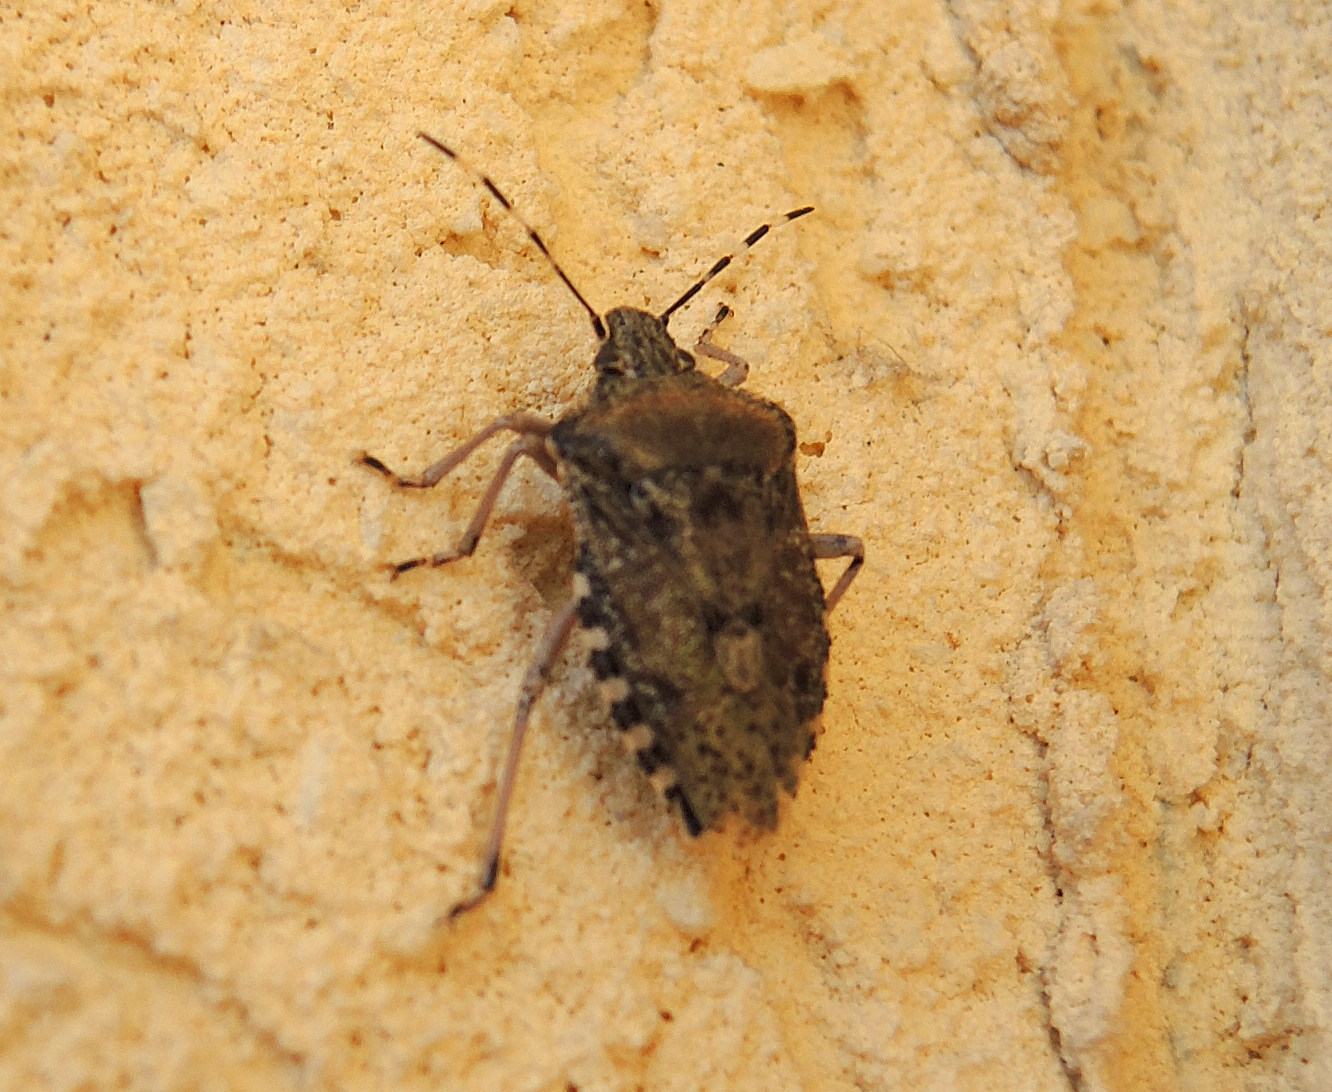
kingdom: Animalia
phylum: Arthropoda
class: Insecta
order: Hemiptera
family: Pentatomidae
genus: Rhaphigaster
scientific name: Rhaphigaster nebulosa
